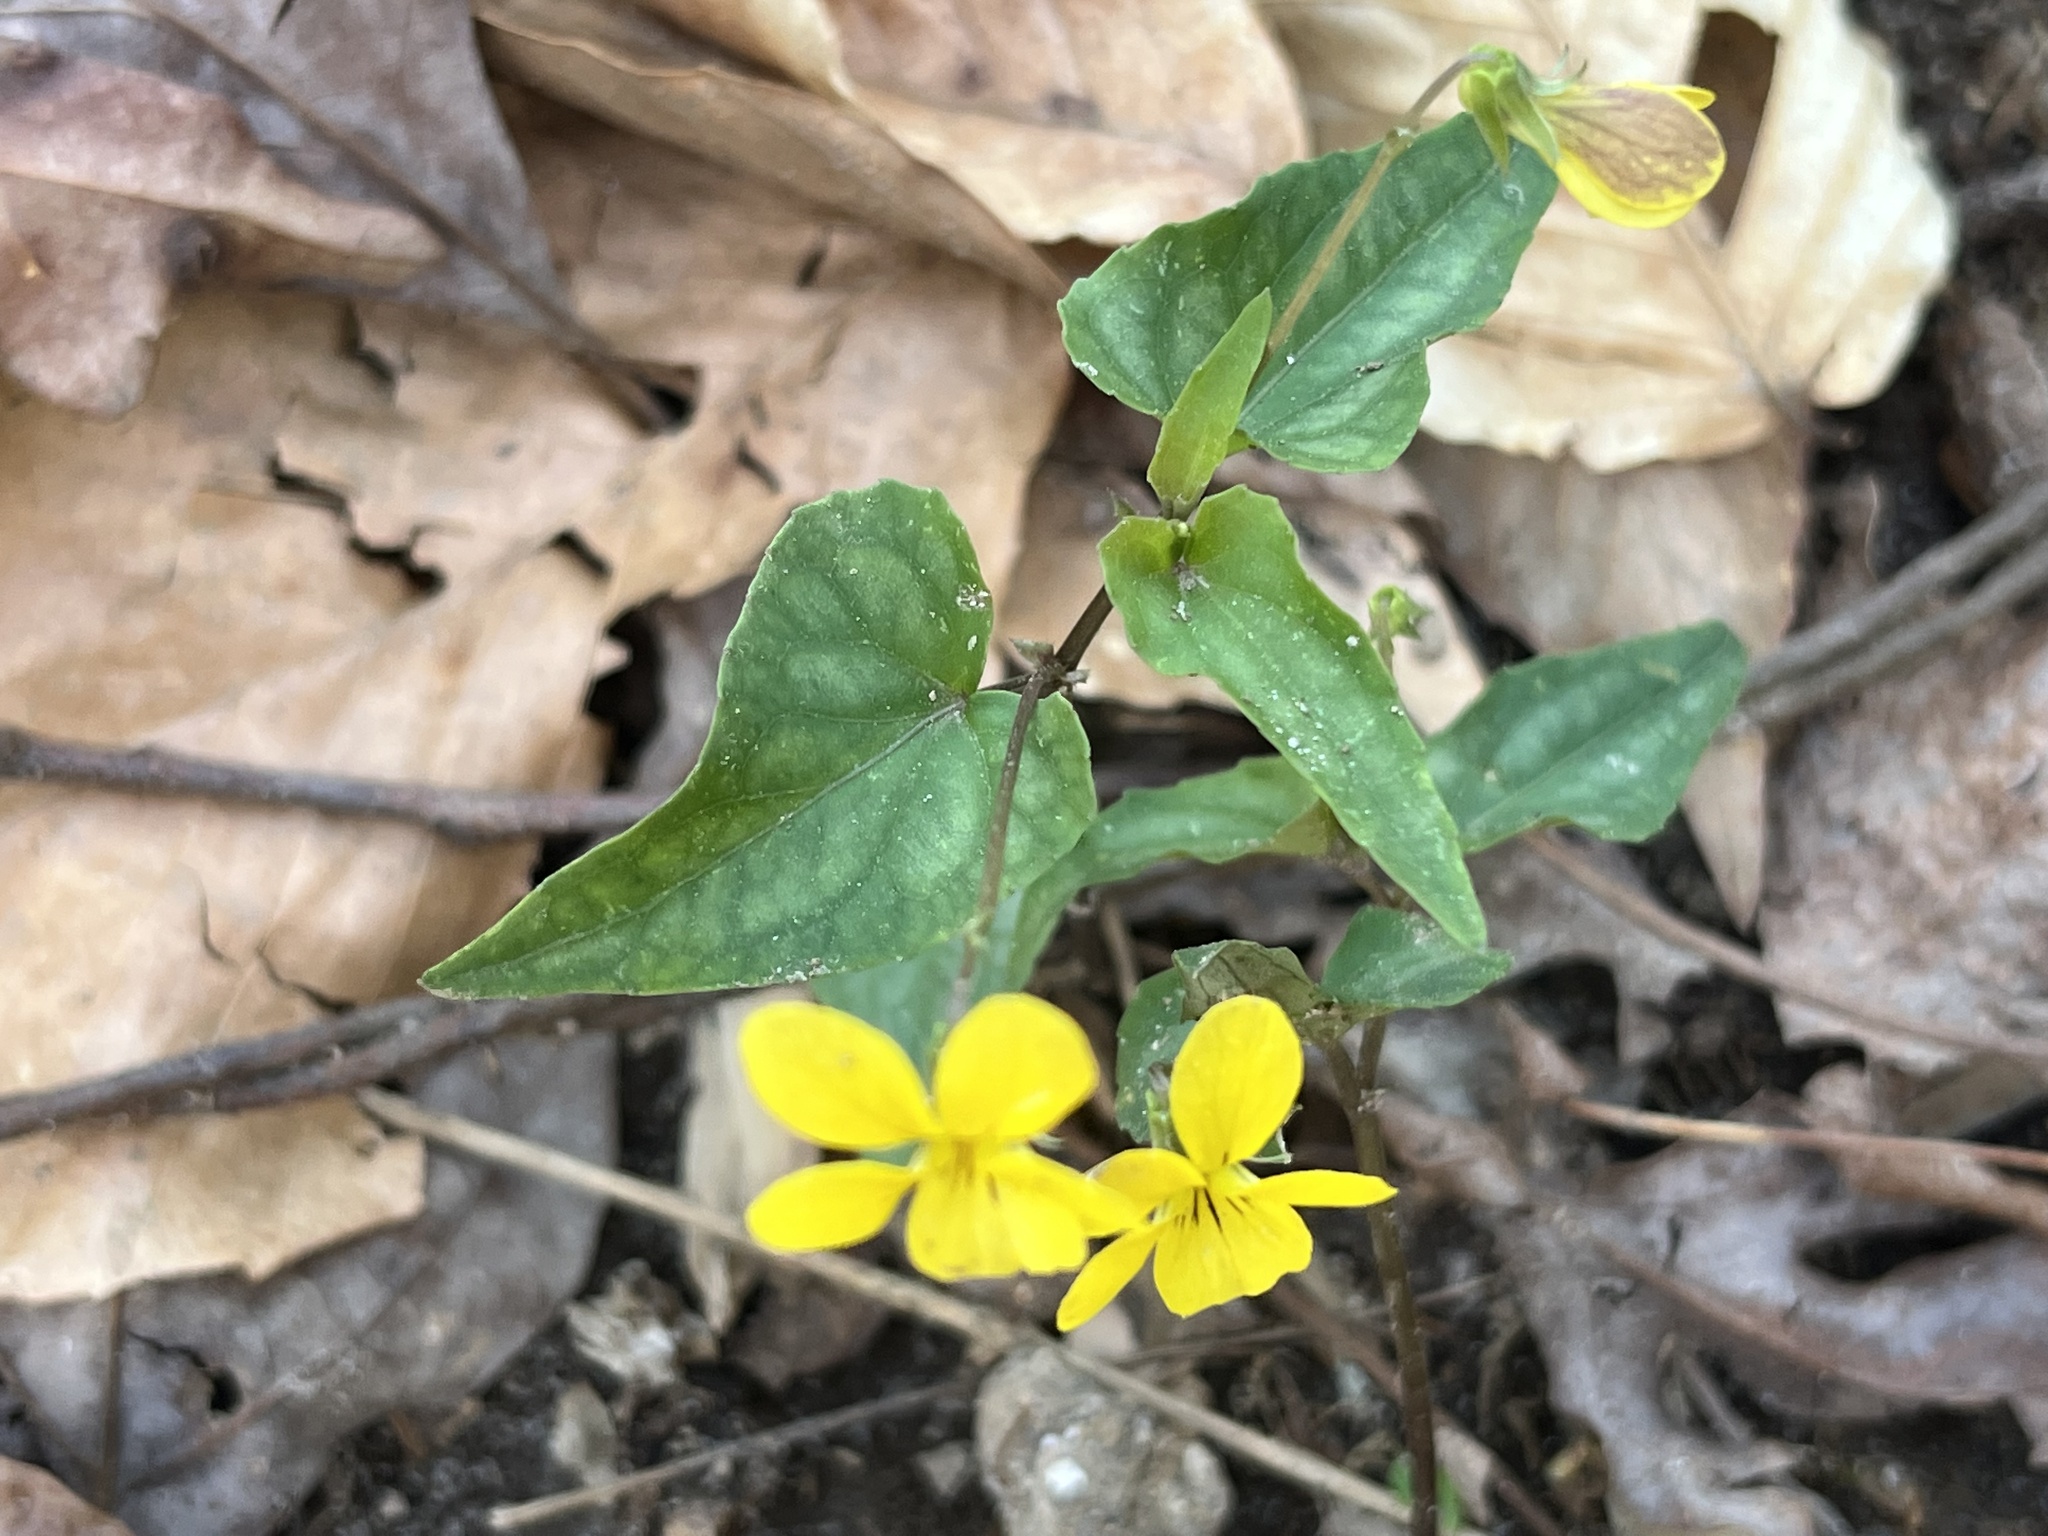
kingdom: Plantae
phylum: Tracheophyta
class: Magnoliopsida
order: Malpighiales
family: Violaceae
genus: Viola
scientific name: Viola hastata
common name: Spear-leaf violet
